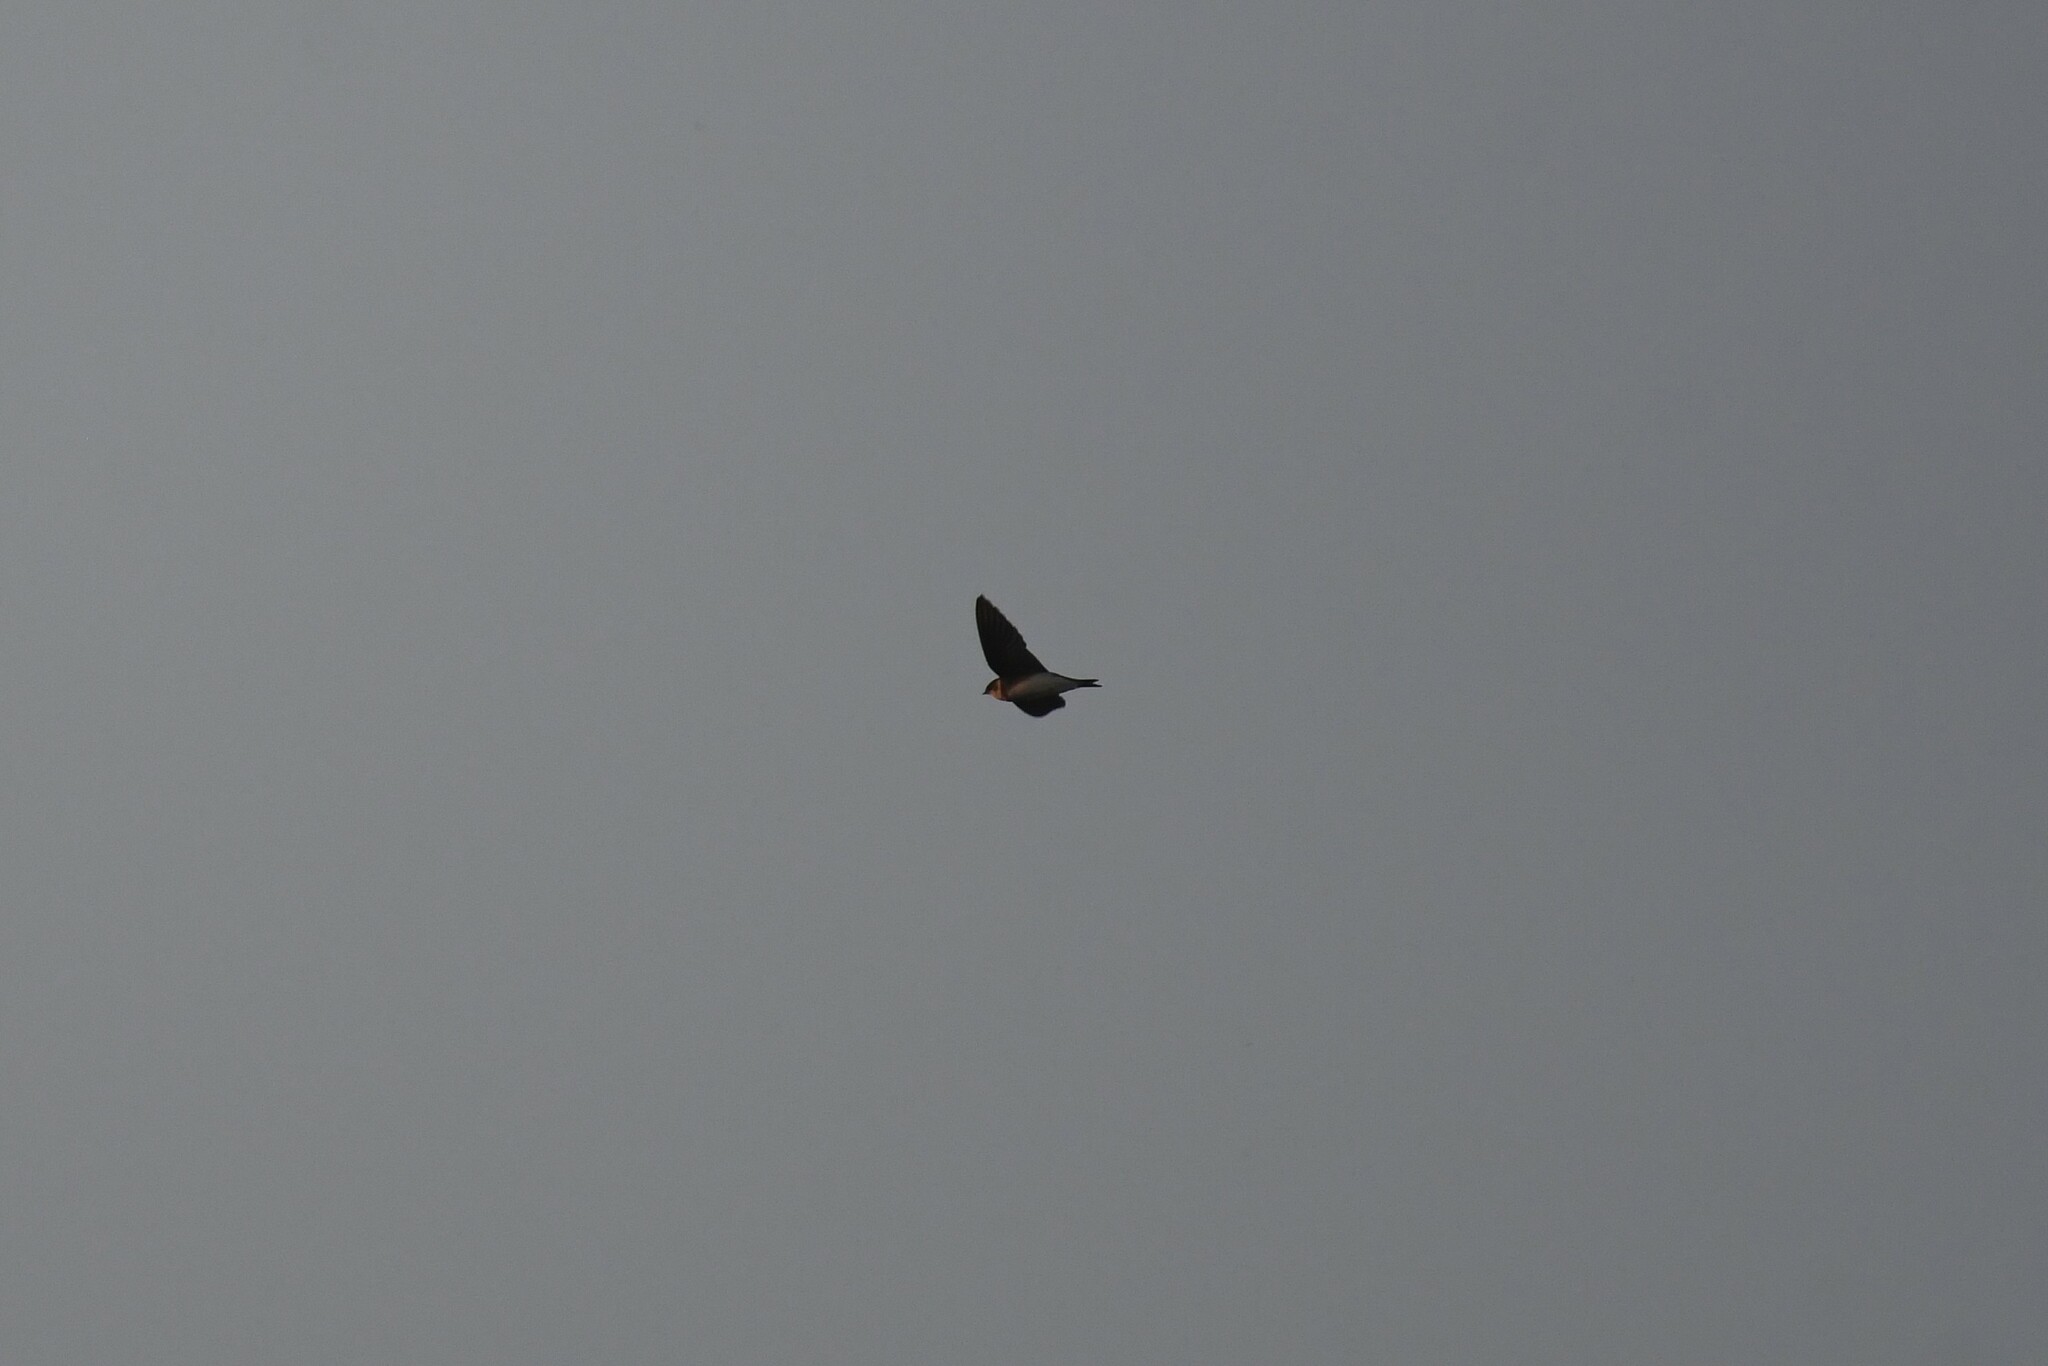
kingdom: Animalia
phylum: Chordata
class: Aves
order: Passeriformes
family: Hirundinidae
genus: Riparia
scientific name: Riparia riparia
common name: Sand martin
